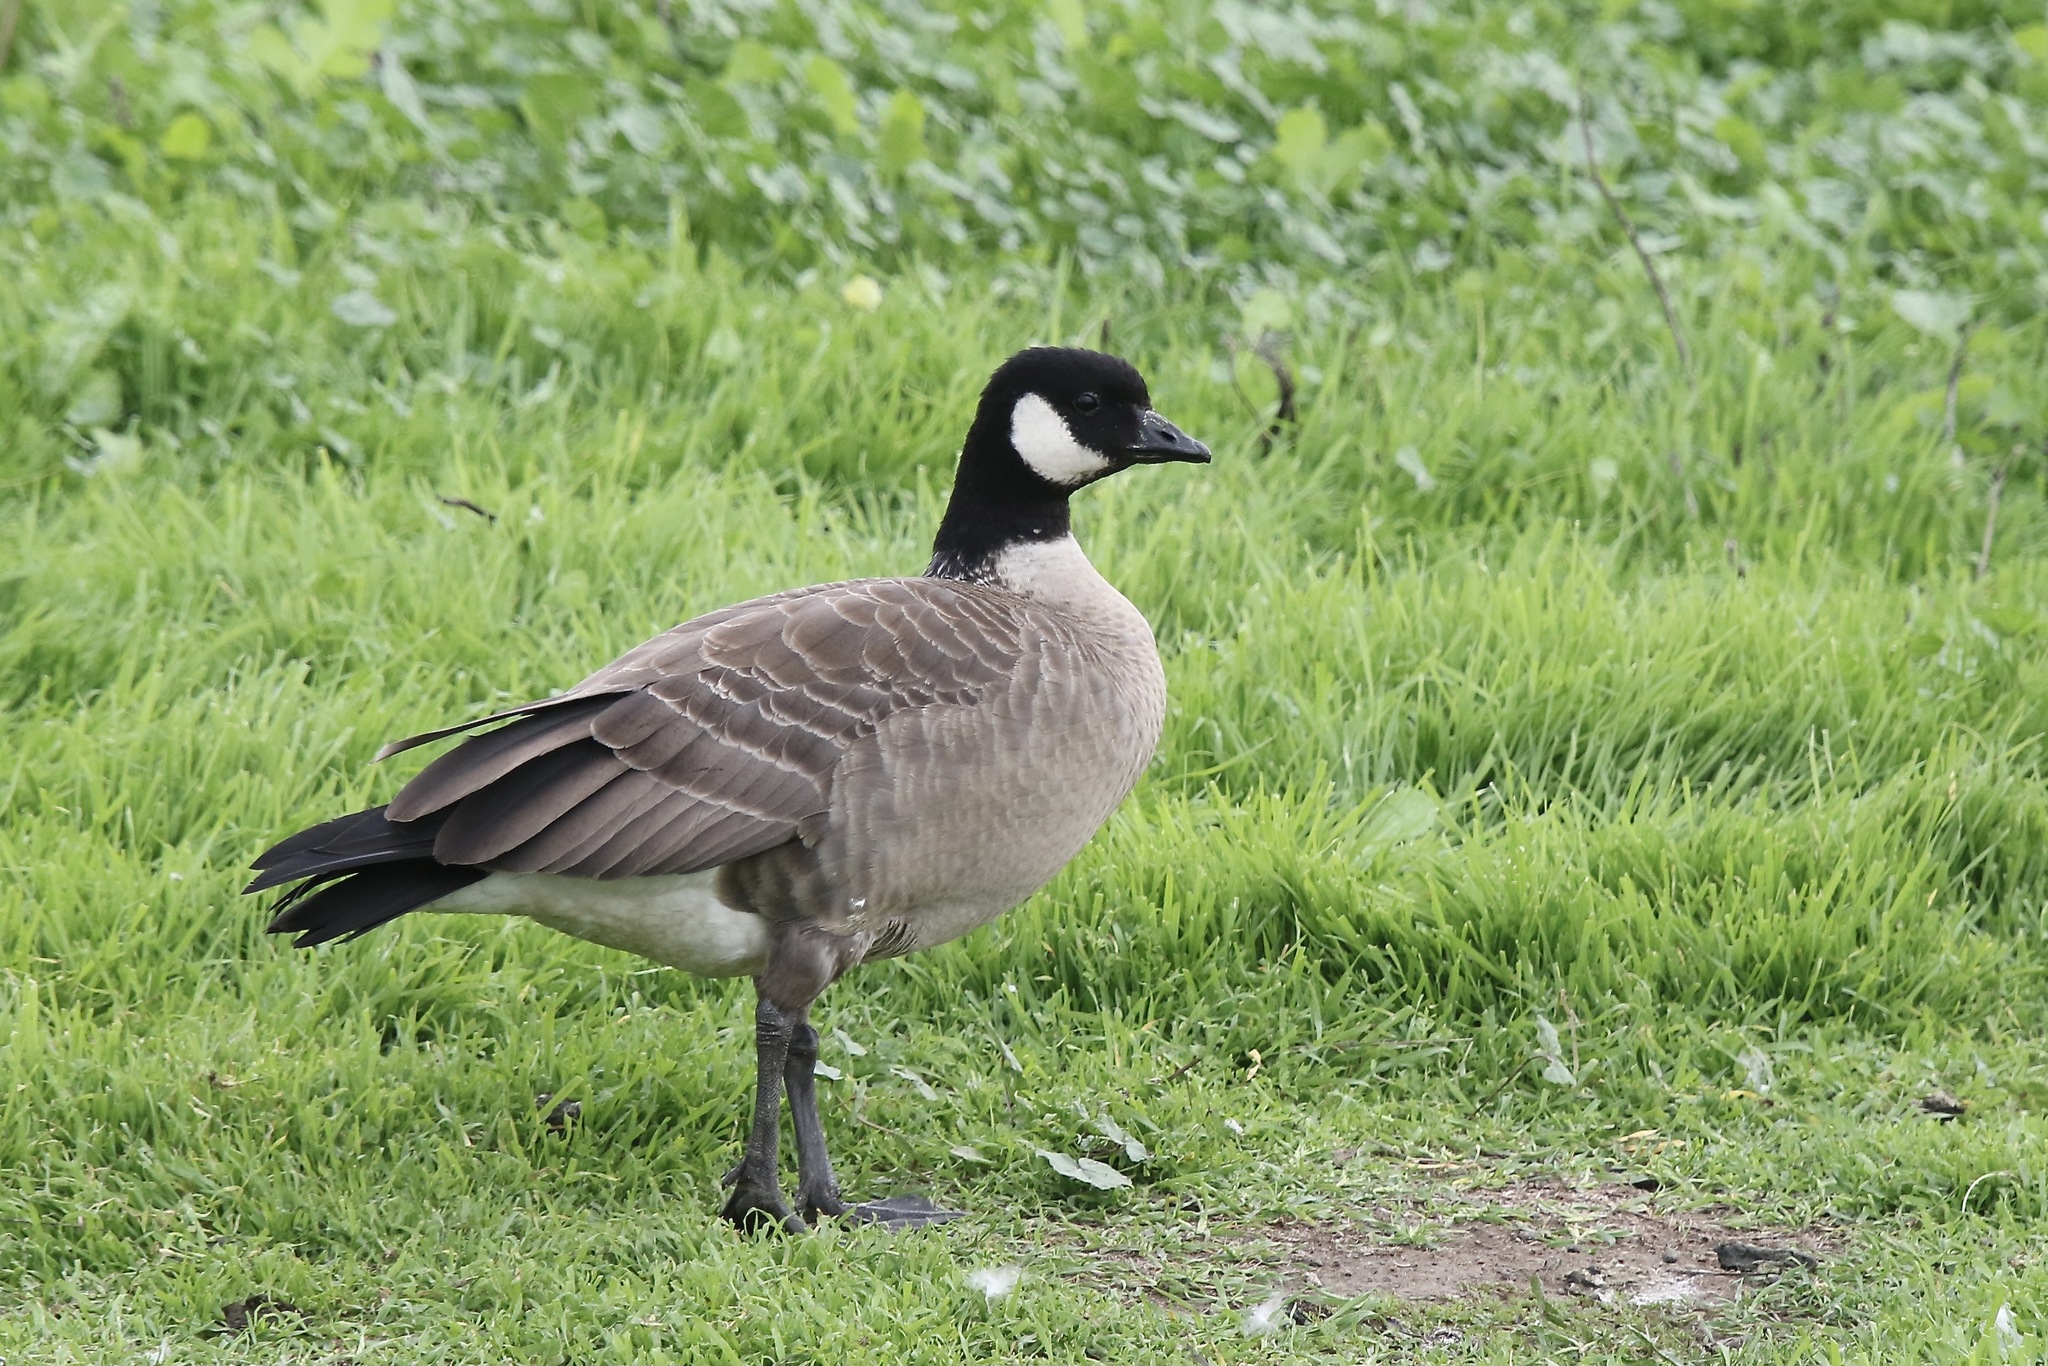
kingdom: Animalia
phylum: Chordata
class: Aves
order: Anseriformes
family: Anatidae
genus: Branta
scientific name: Branta hutchinsii
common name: Cackling goose
